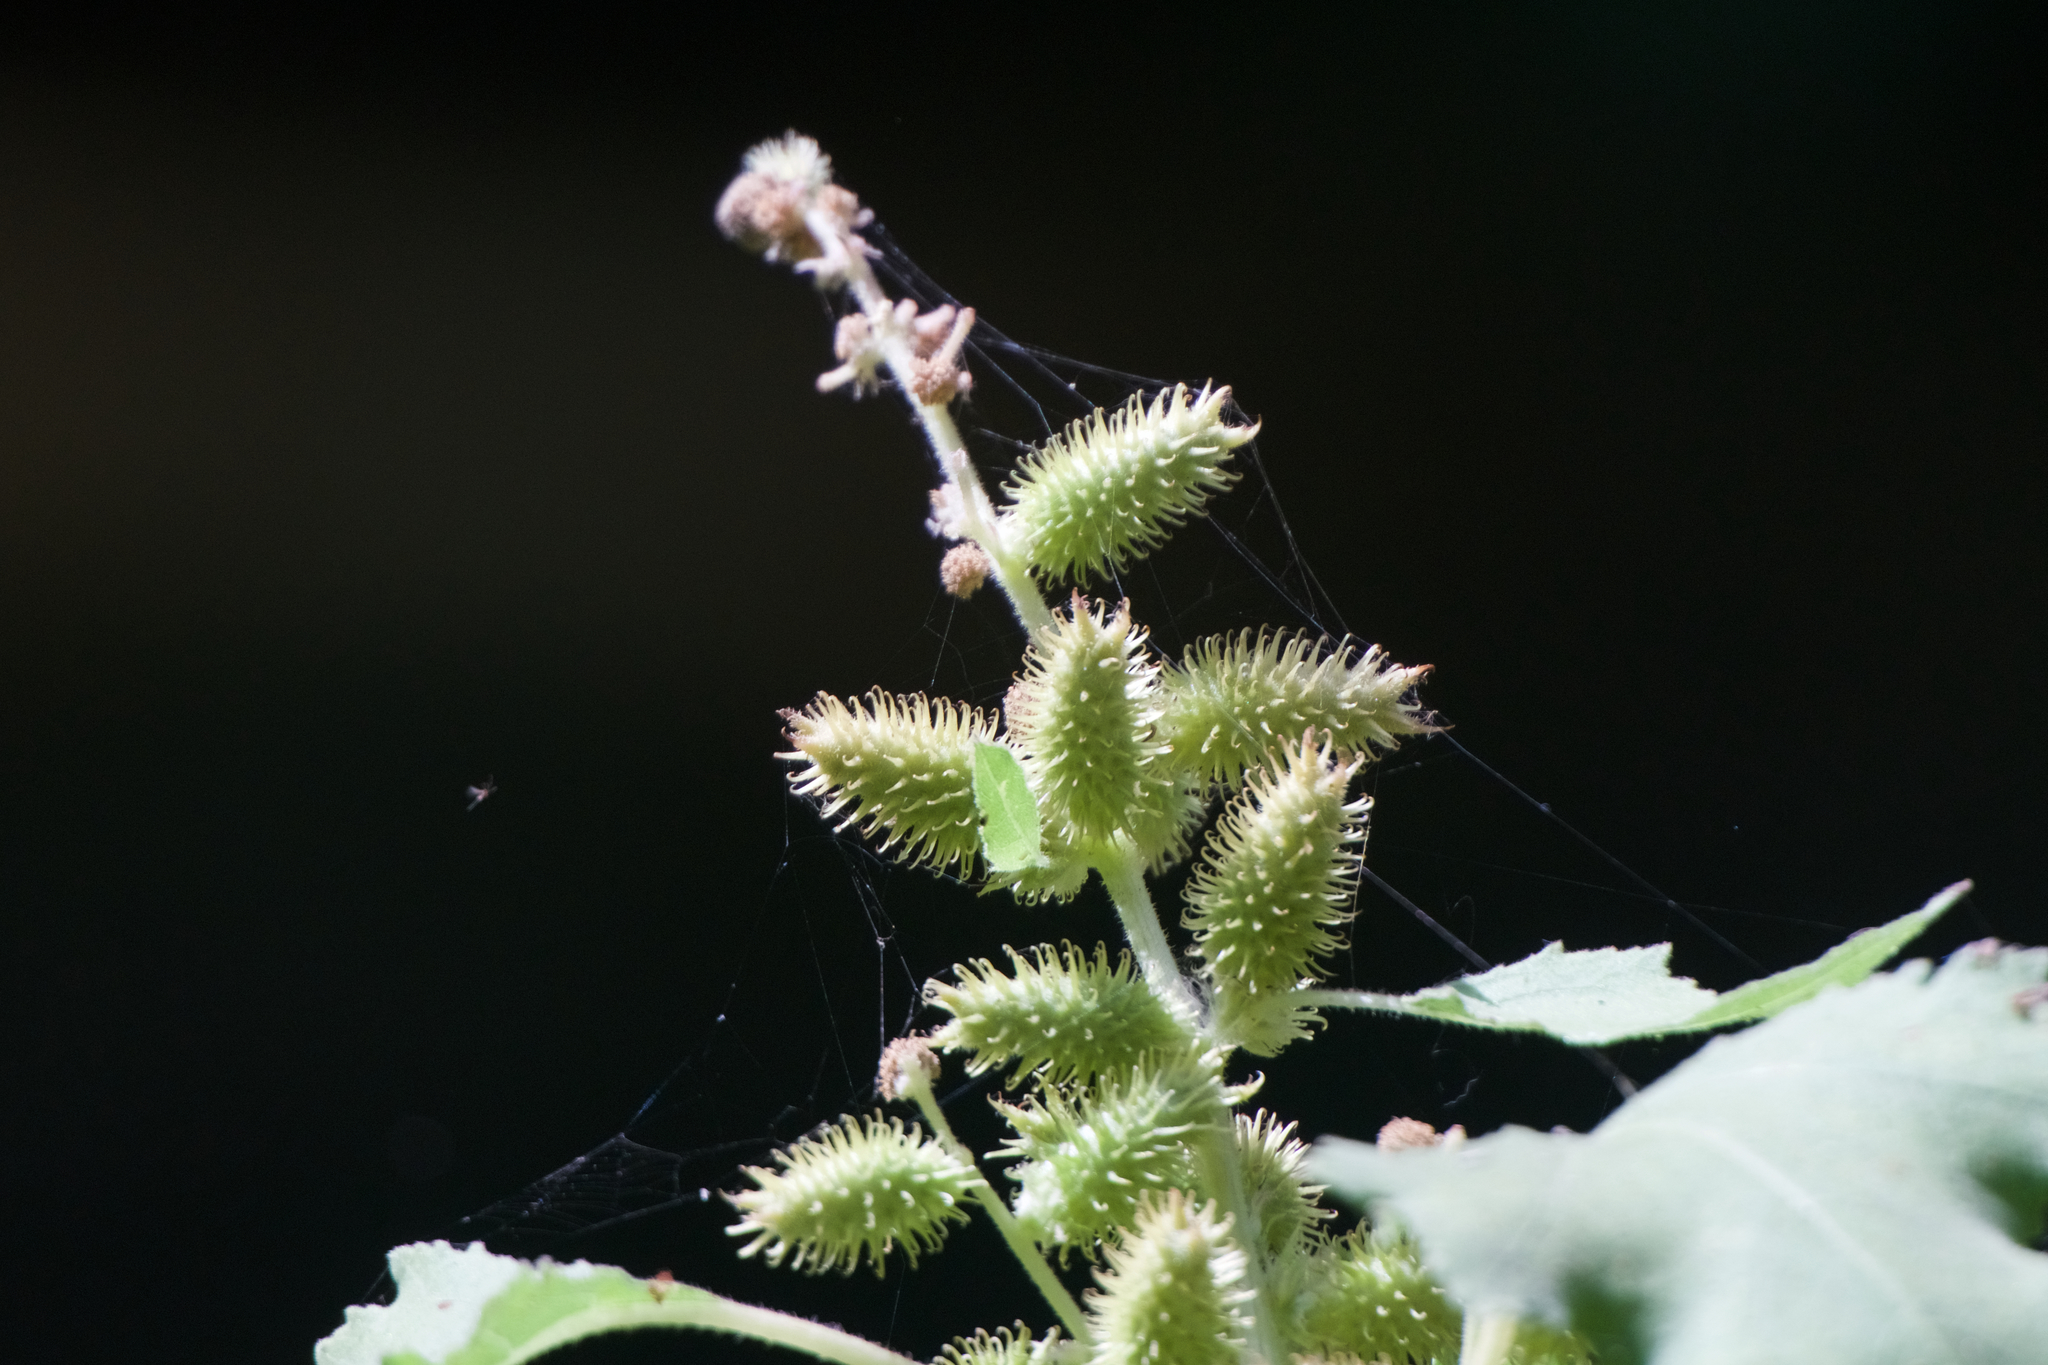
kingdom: Plantae
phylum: Tracheophyta
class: Magnoliopsida
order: Asterales
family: Asteraceae
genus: Xanthium
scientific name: Xanthium strumarium
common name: Rough cocklebur
